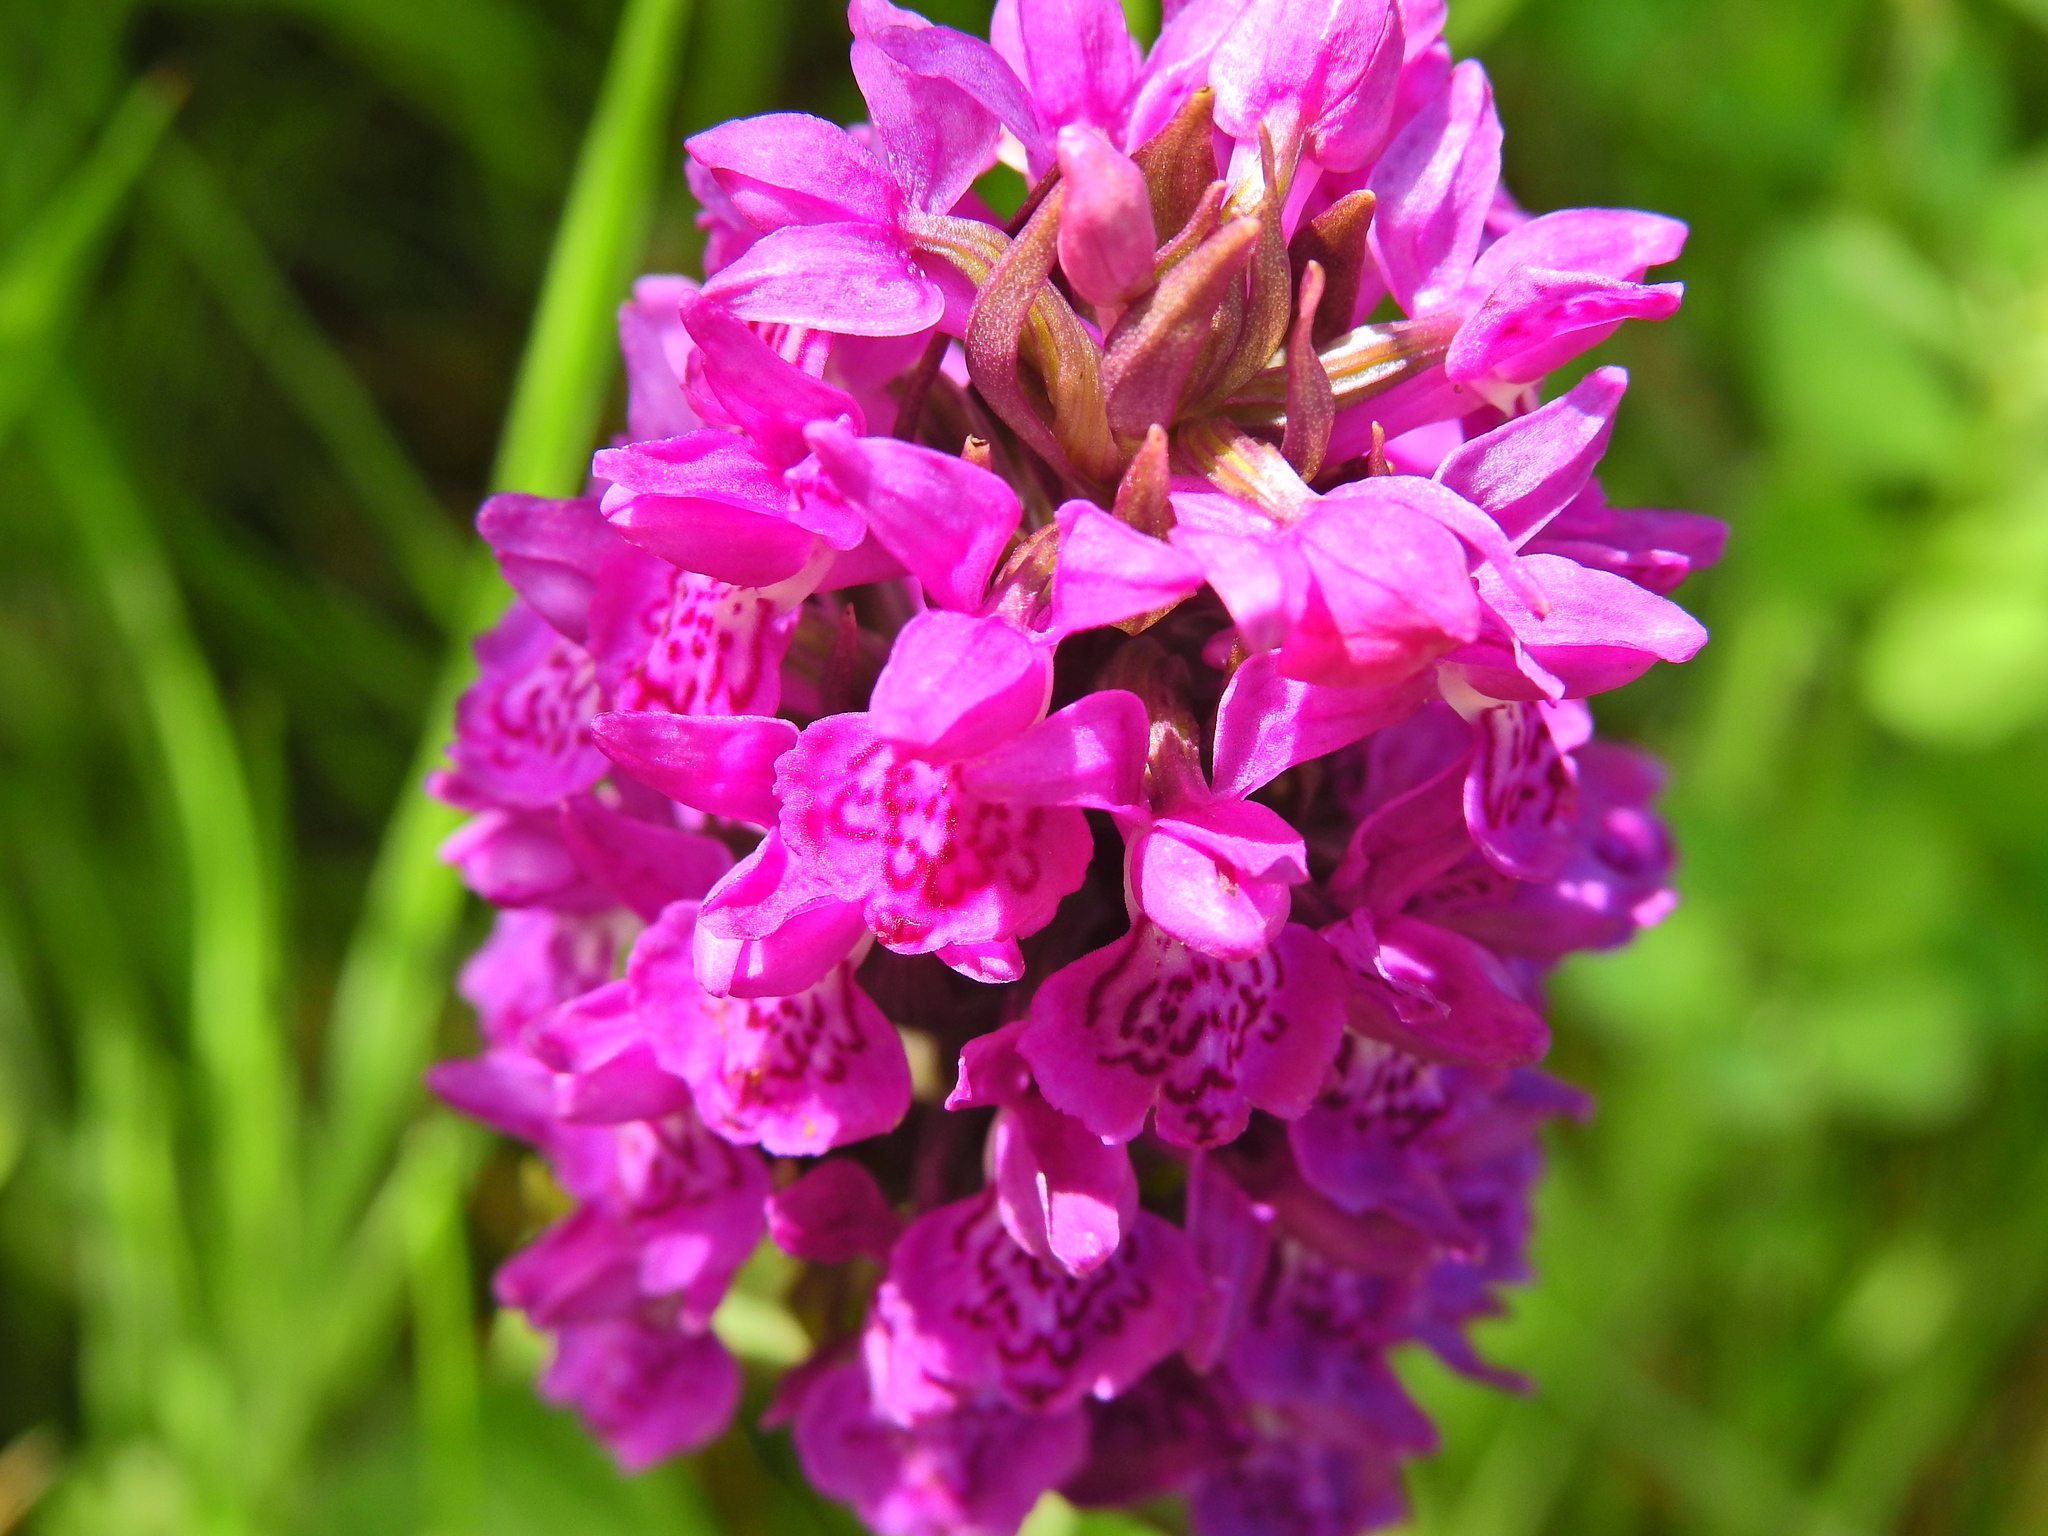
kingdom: Plantae
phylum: Tracheophyta
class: Liliopsida
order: Asparagales
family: Orchidaceae
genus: Dactylorhiza
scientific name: Dactylorhiza majalis
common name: Marsh orchid
